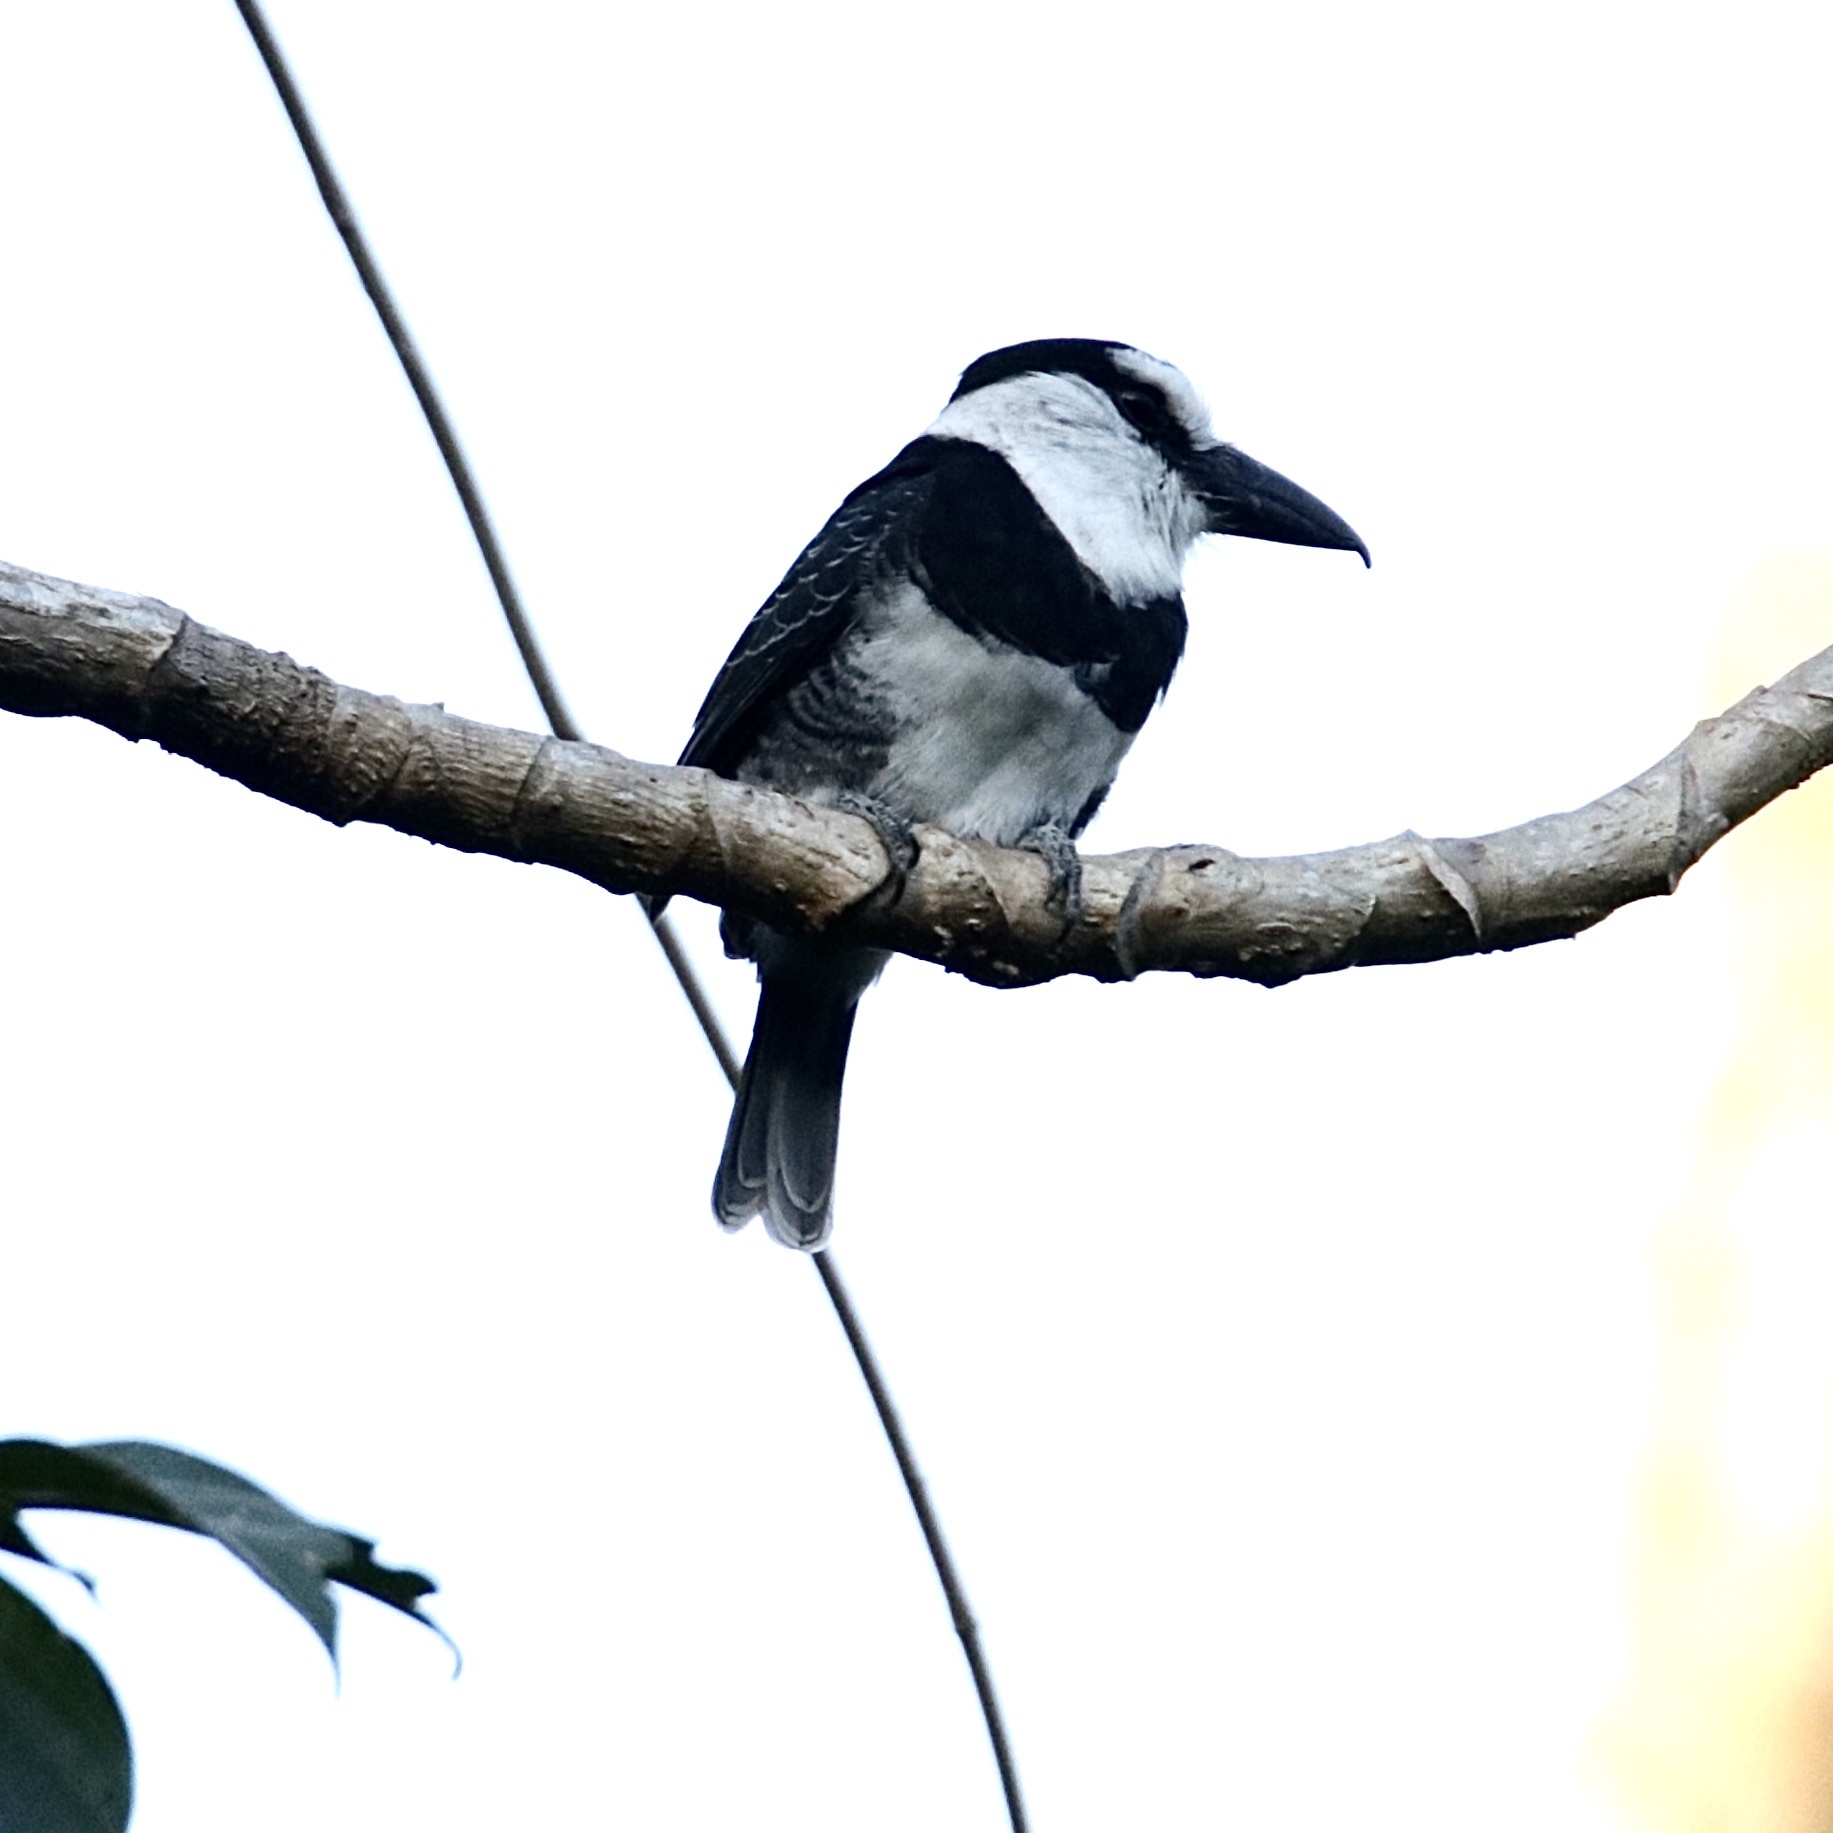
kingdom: Animalia
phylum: Chordata
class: Aves
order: Piciformes
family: Bucconidae
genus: Notharchus
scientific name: Notharchus hyperrhynchus
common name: White-necked puffbird
